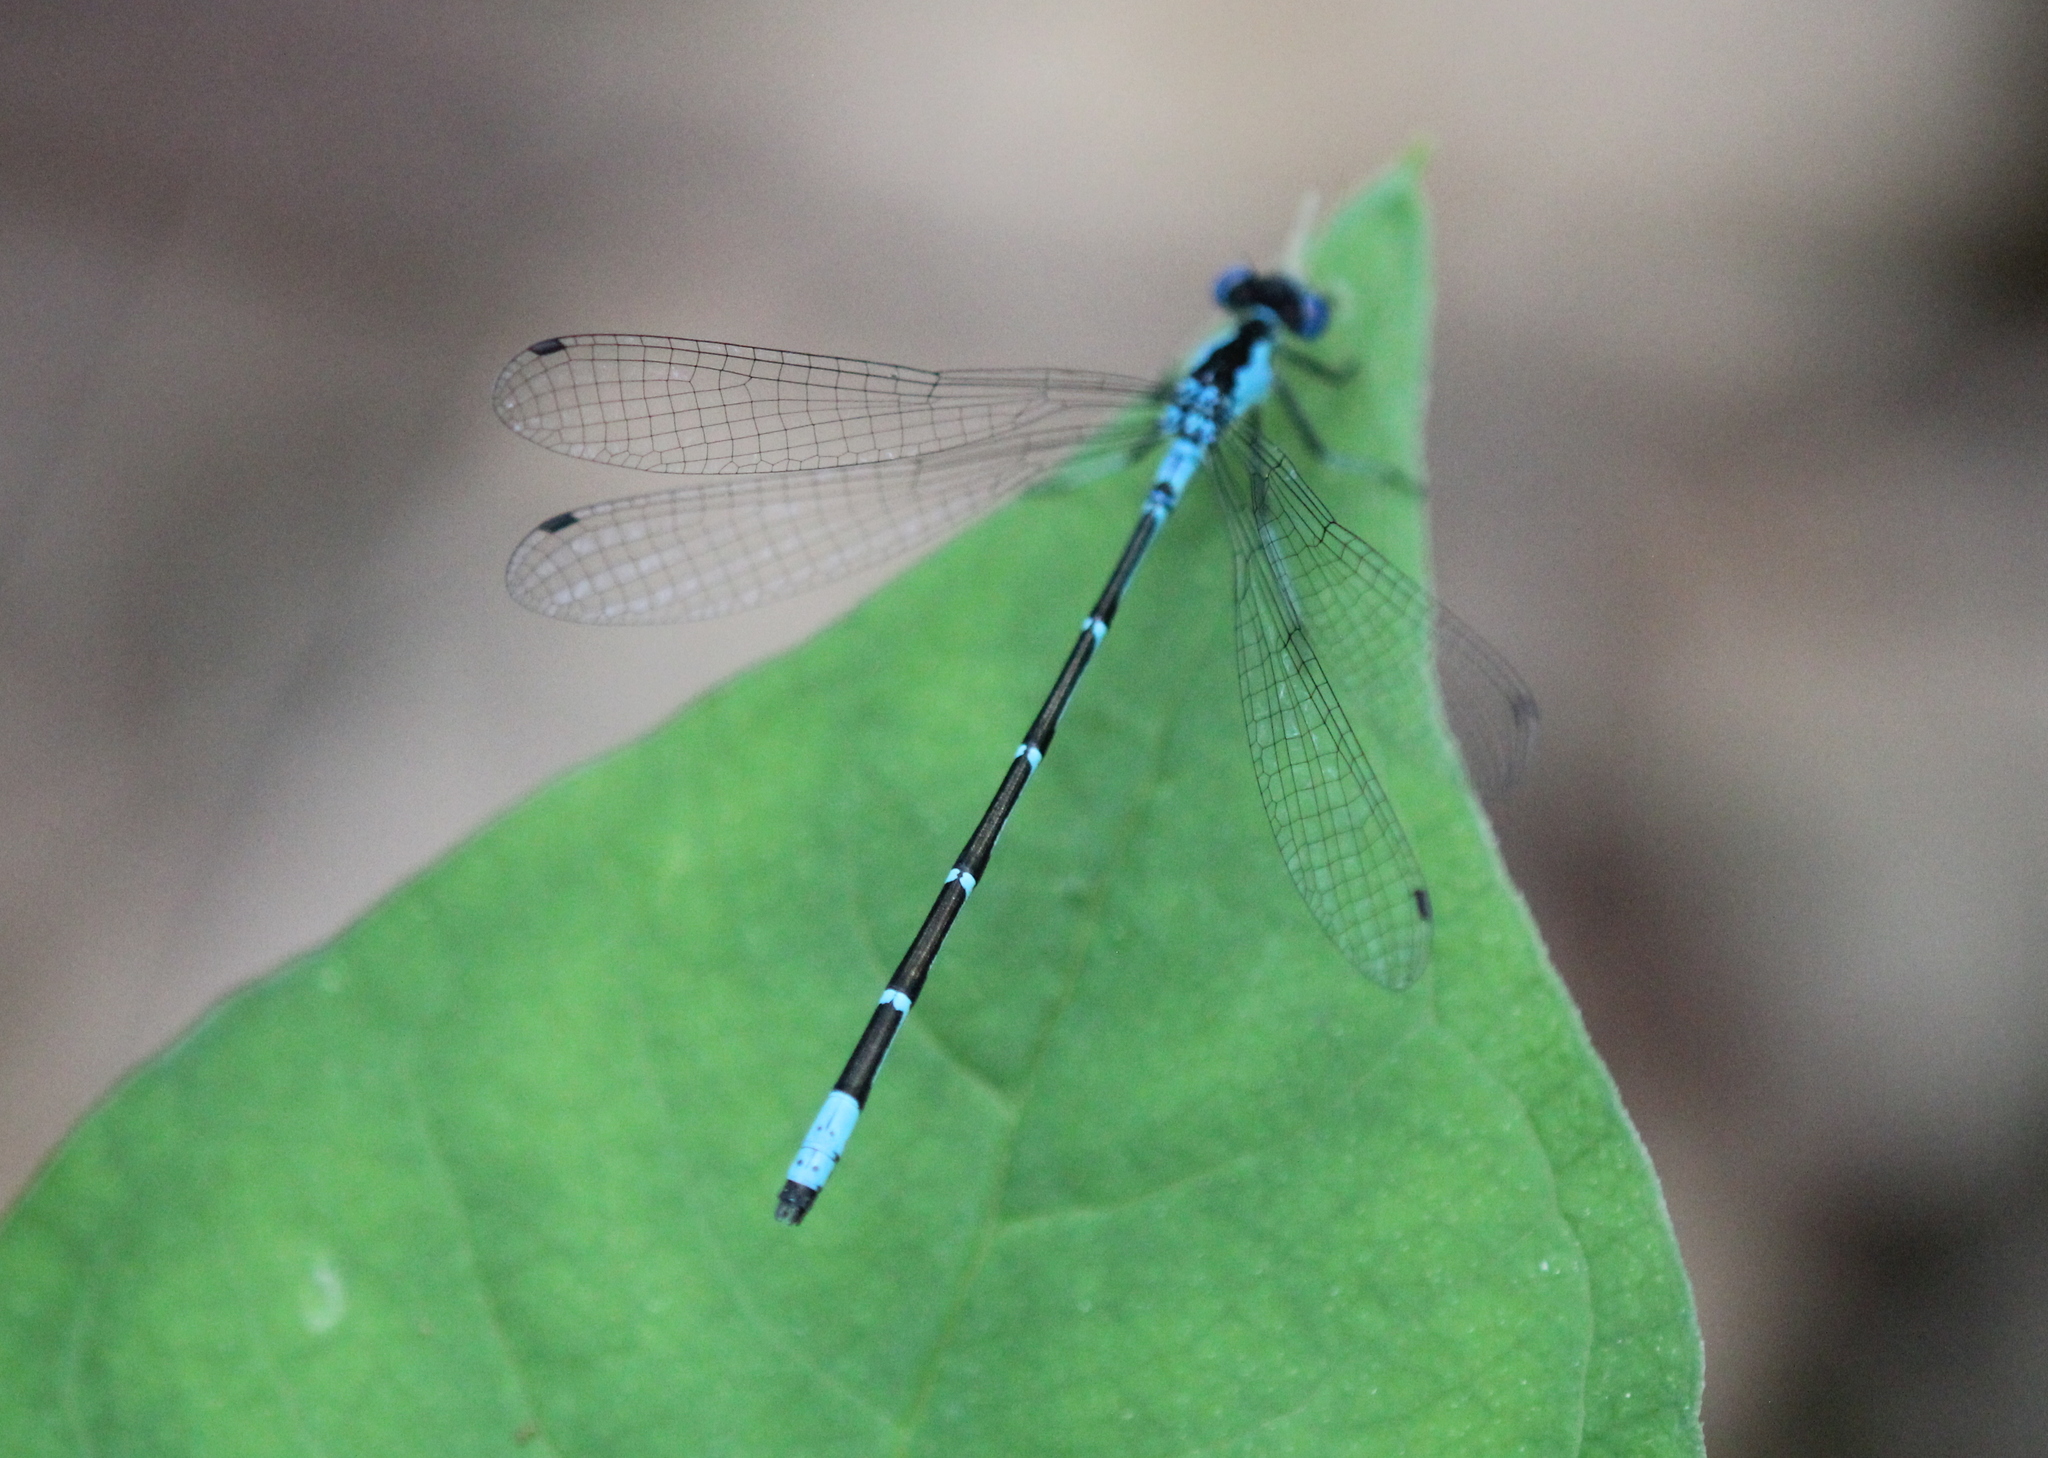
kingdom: Animalia
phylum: Arthropoda
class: Insecta
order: Odonata
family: Coenagrionidae
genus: Chromagrion
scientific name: Chromagrion conditum
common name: Aurora damsel
